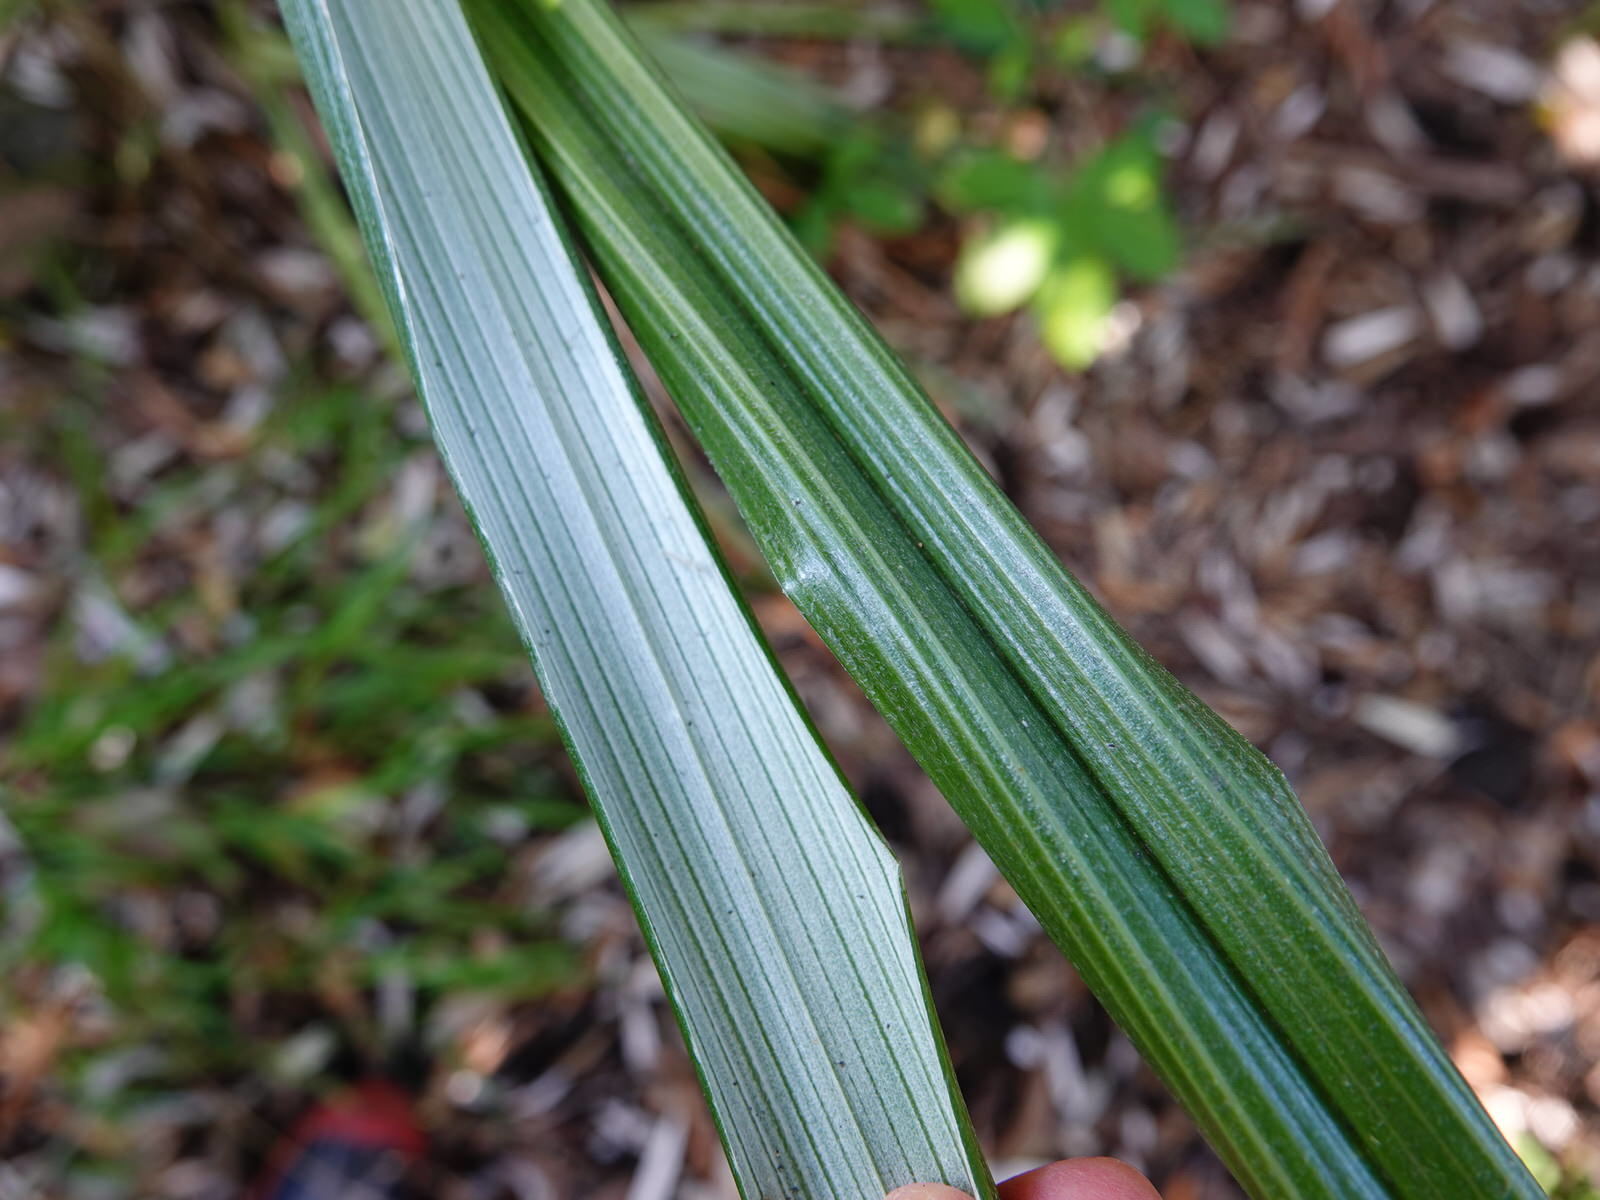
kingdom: Plantae
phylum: Tracheophyta
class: Liliopsida
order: Asparagales
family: Asteliaceae
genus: Astelia
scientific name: Astelia banksii
